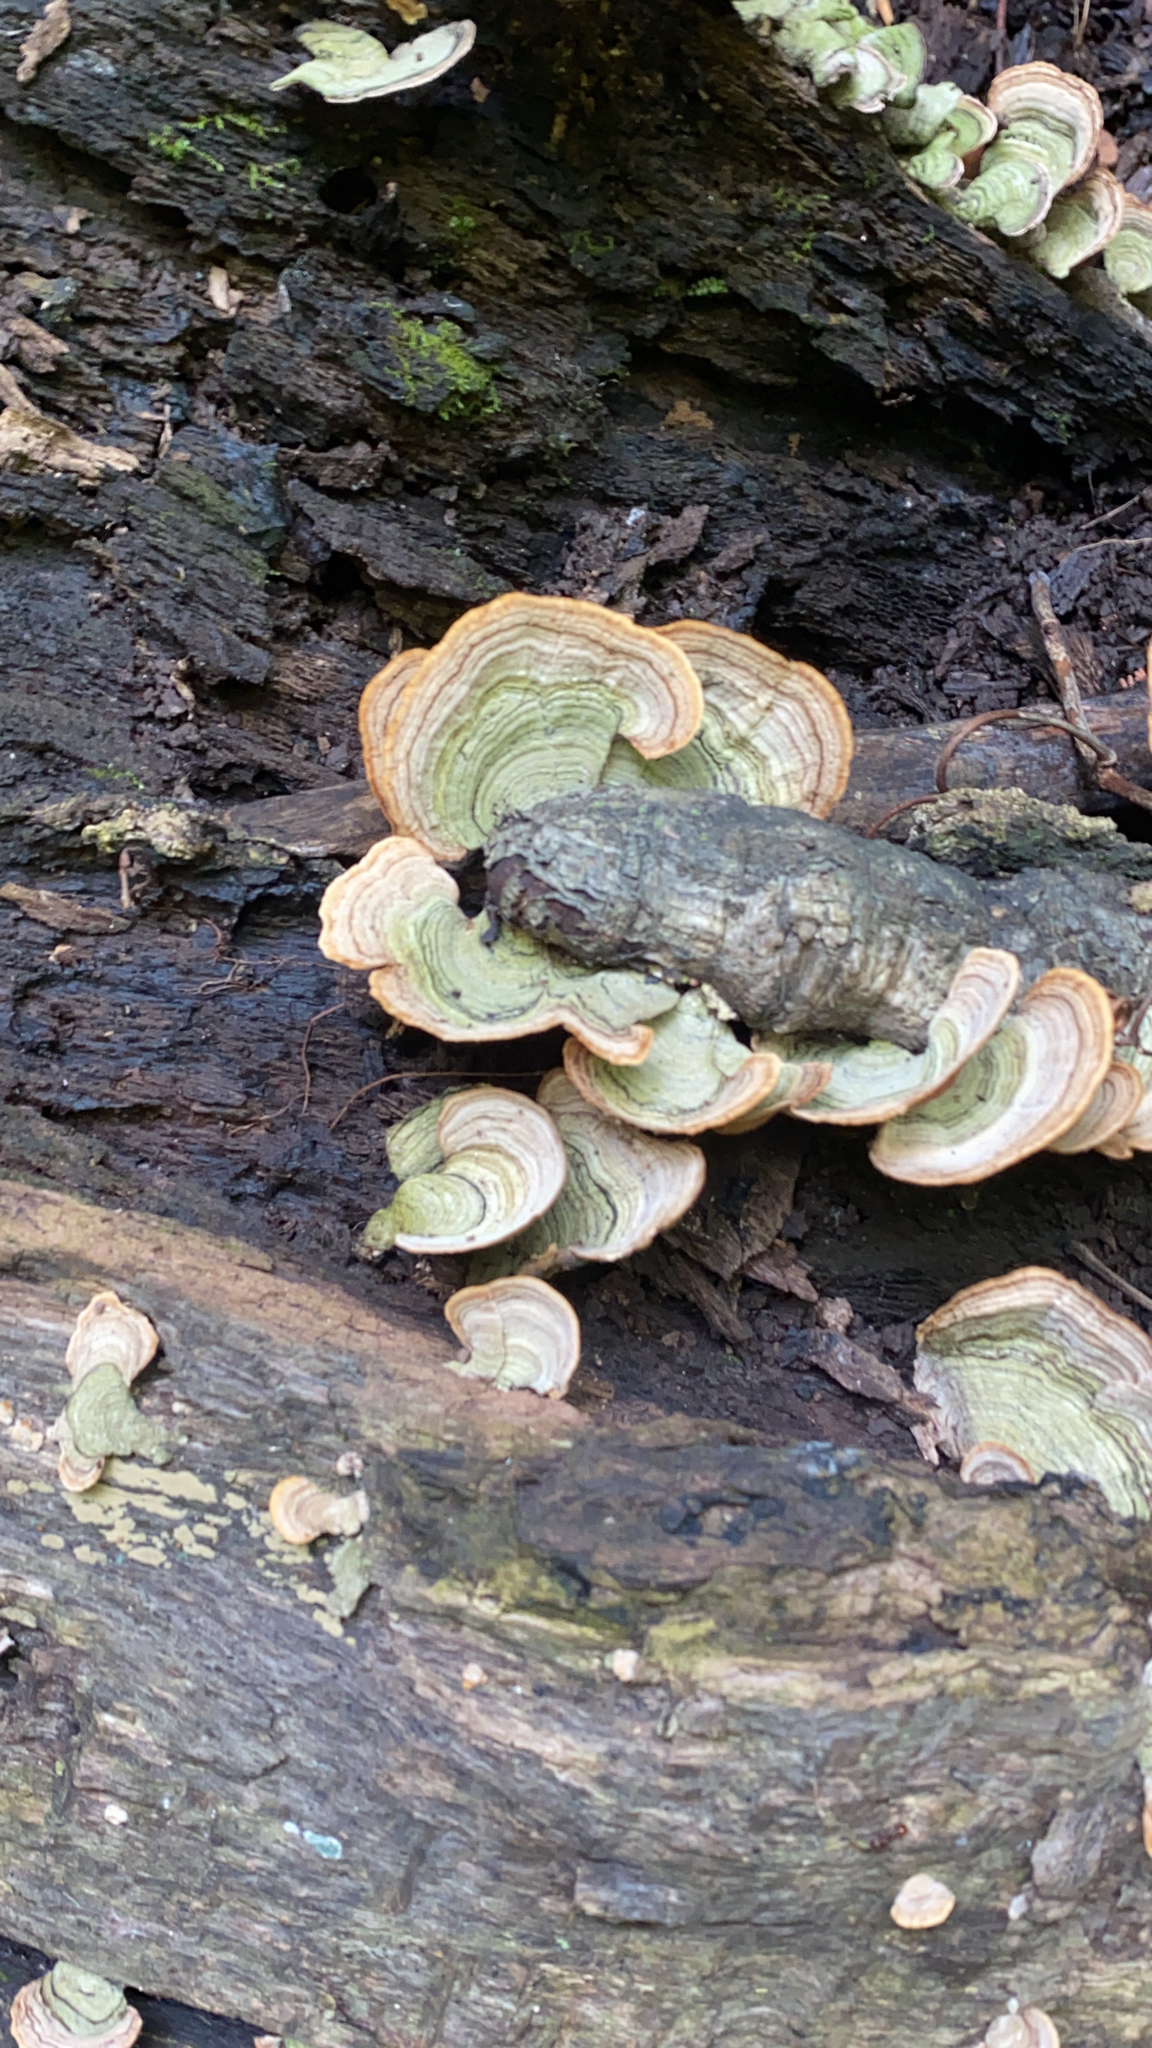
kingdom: Fungi
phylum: Basidiomycota
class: Agaricomycetes
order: Russulales
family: Stereaceae
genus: Stereum
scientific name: Stereum ostrea
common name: False turkeytail
